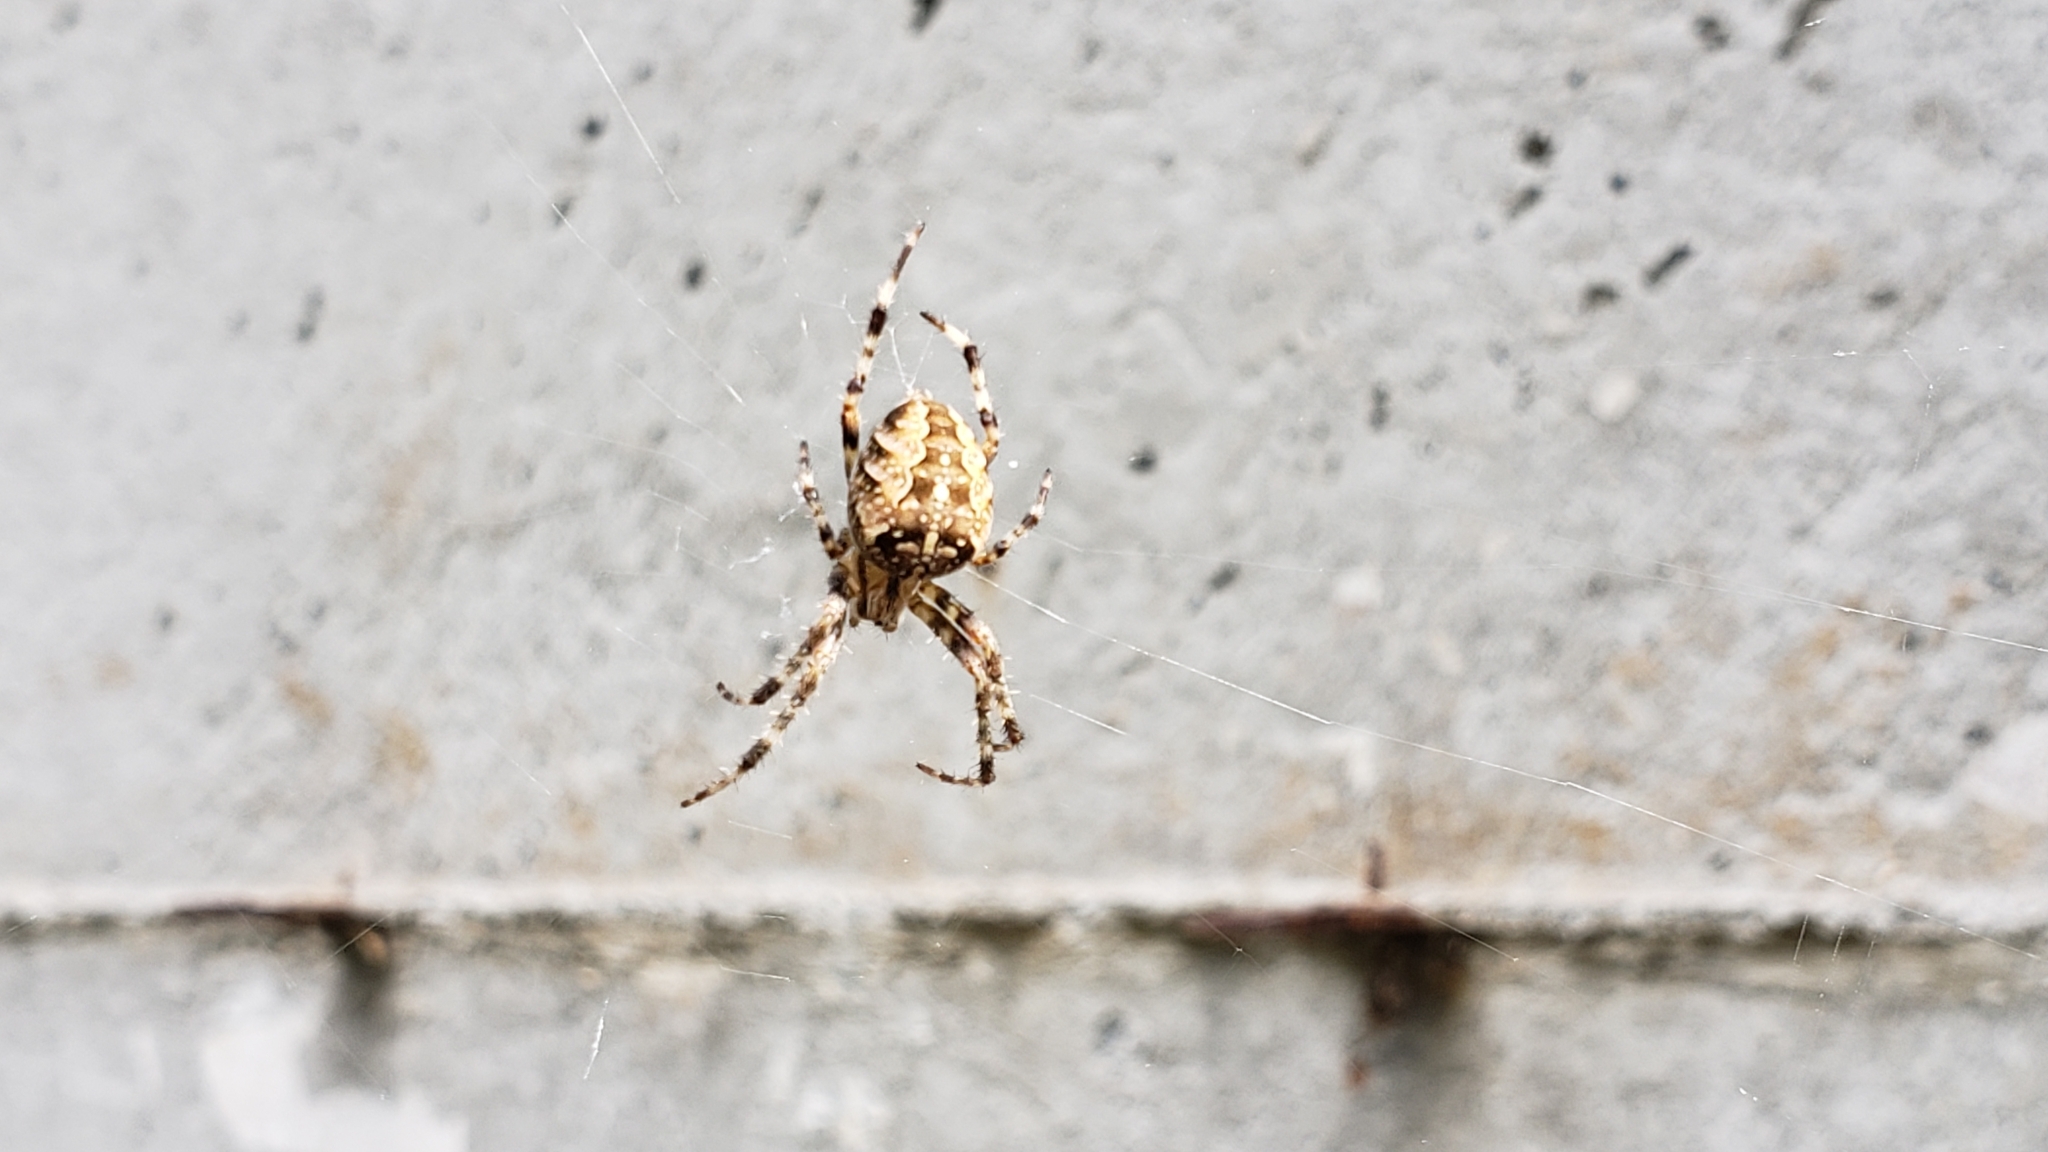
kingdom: Animalia
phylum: Arthropoda
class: Arachnida
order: Araneae
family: Araneidae
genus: Araneus
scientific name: Araneus diadematus
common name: Cross orbweaver
